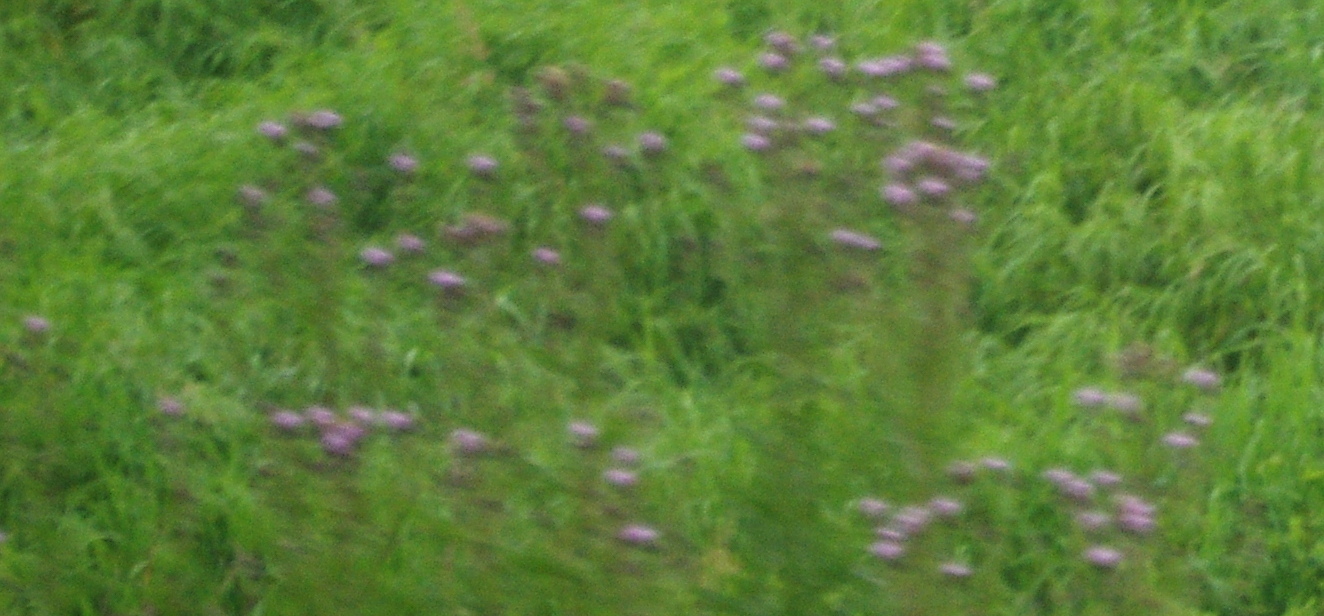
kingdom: Plantae
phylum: Tracheophyta
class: Magnoliopsida
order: Asterales
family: Asteraceae
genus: Cirsium
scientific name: Cirsium arvense
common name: Creeping thistle
